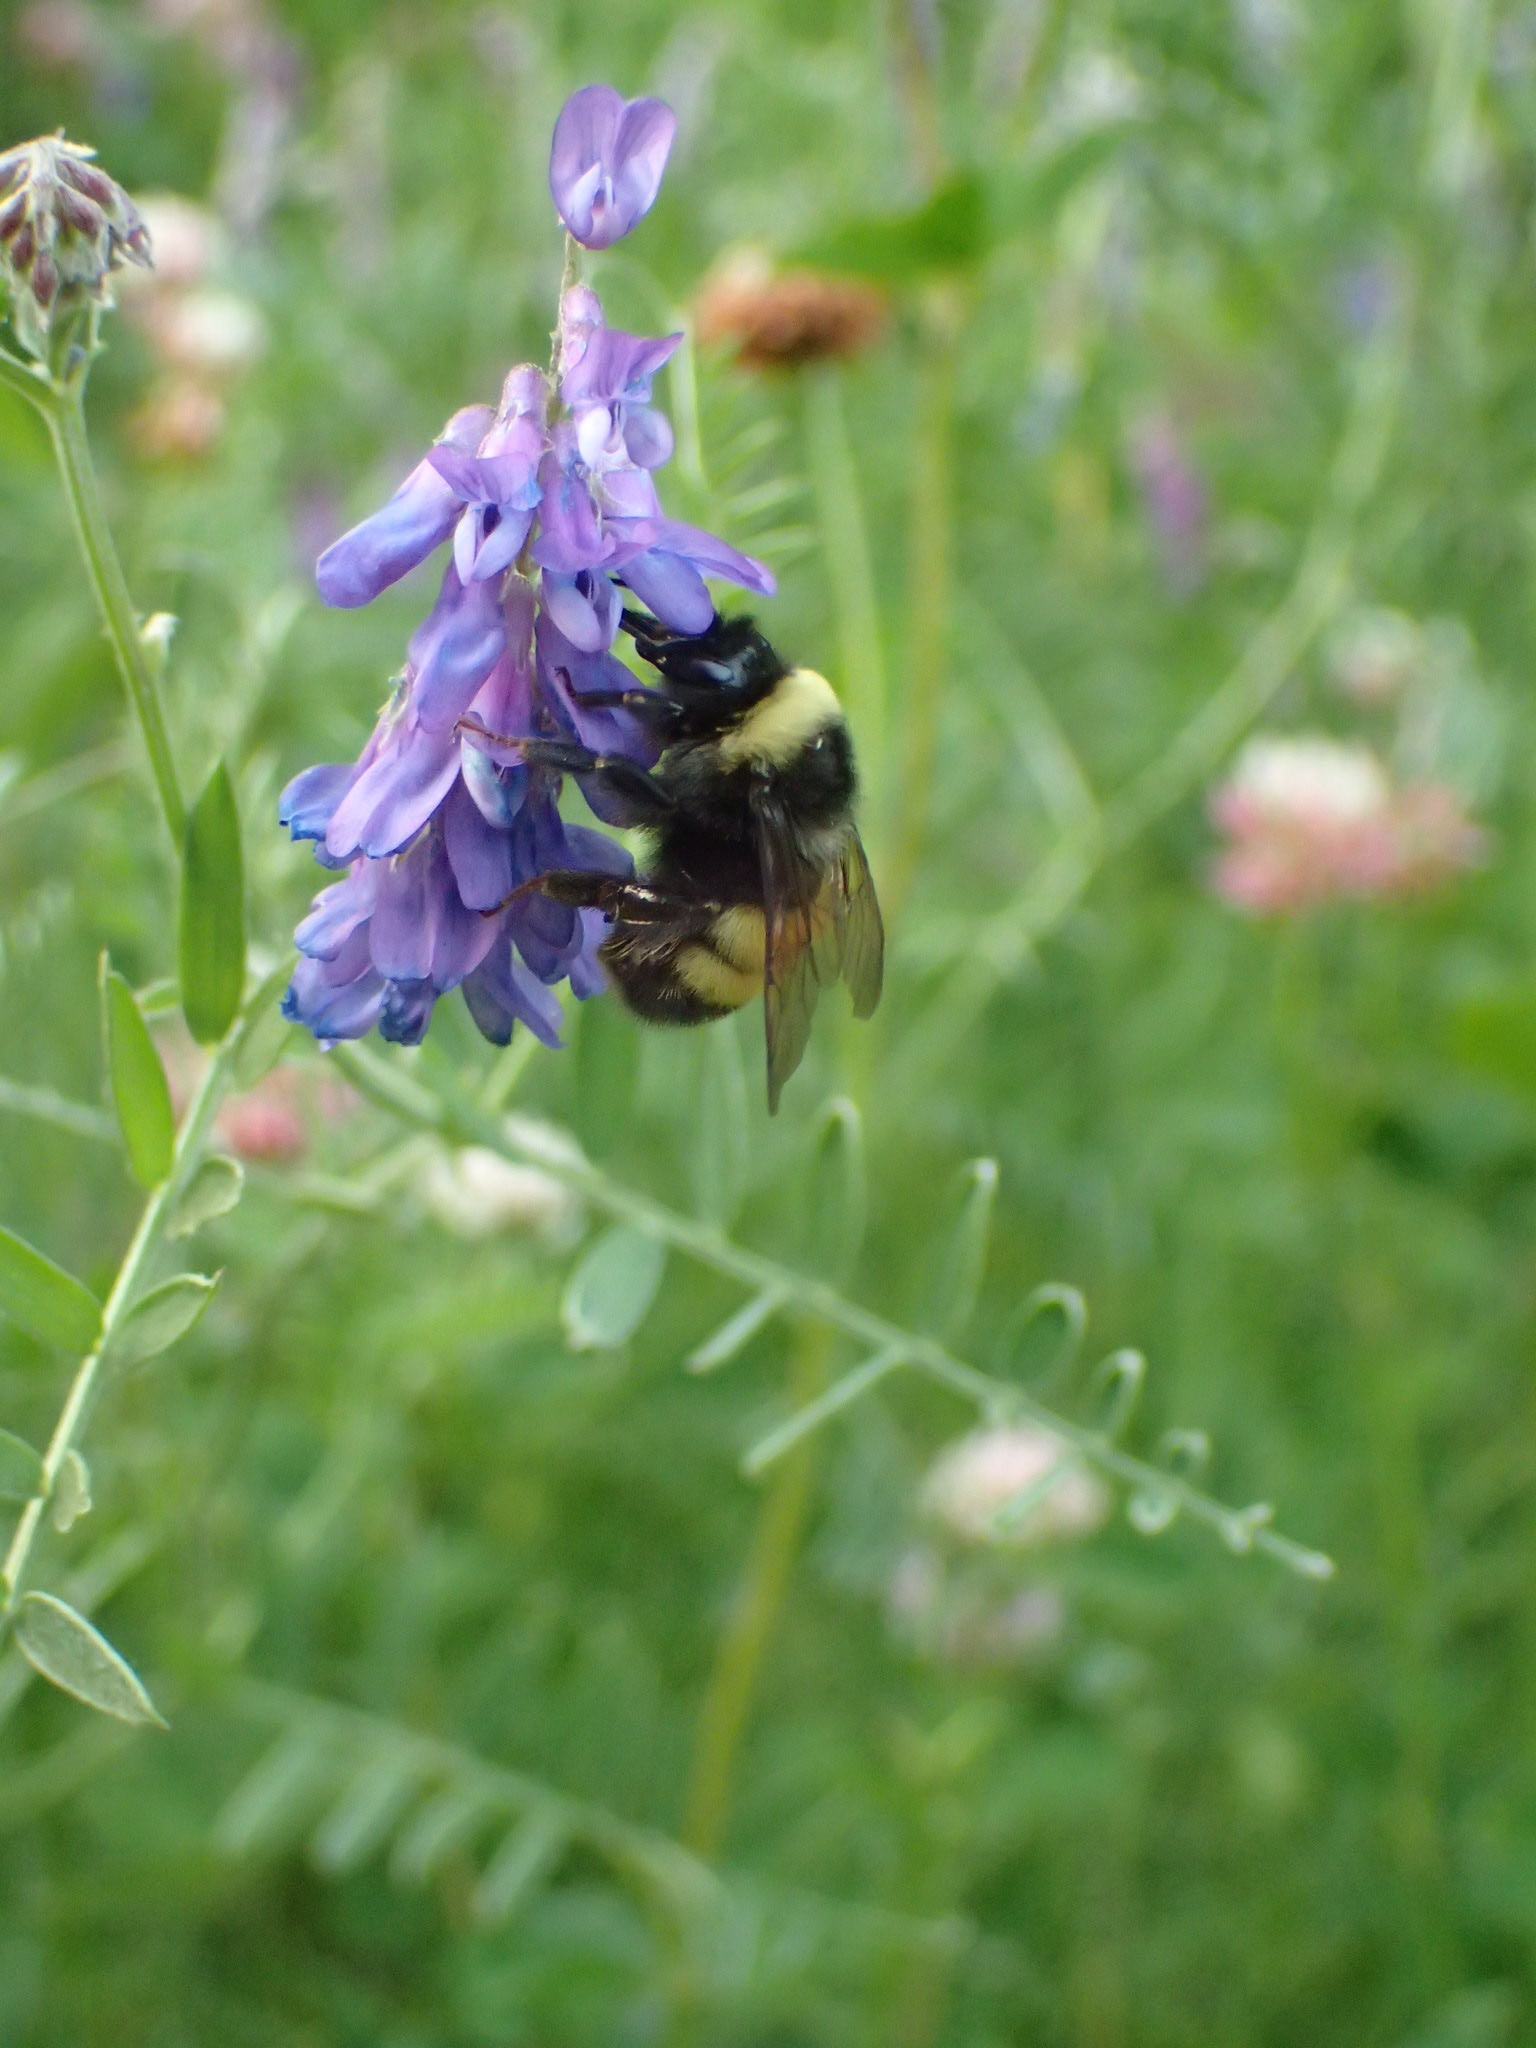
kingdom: Animalia
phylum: Arthropoda
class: Insecta
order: Hymenoptera
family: Apidae
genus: Bombus
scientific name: Bombus terricola
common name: Yellow-banded bumble bee
